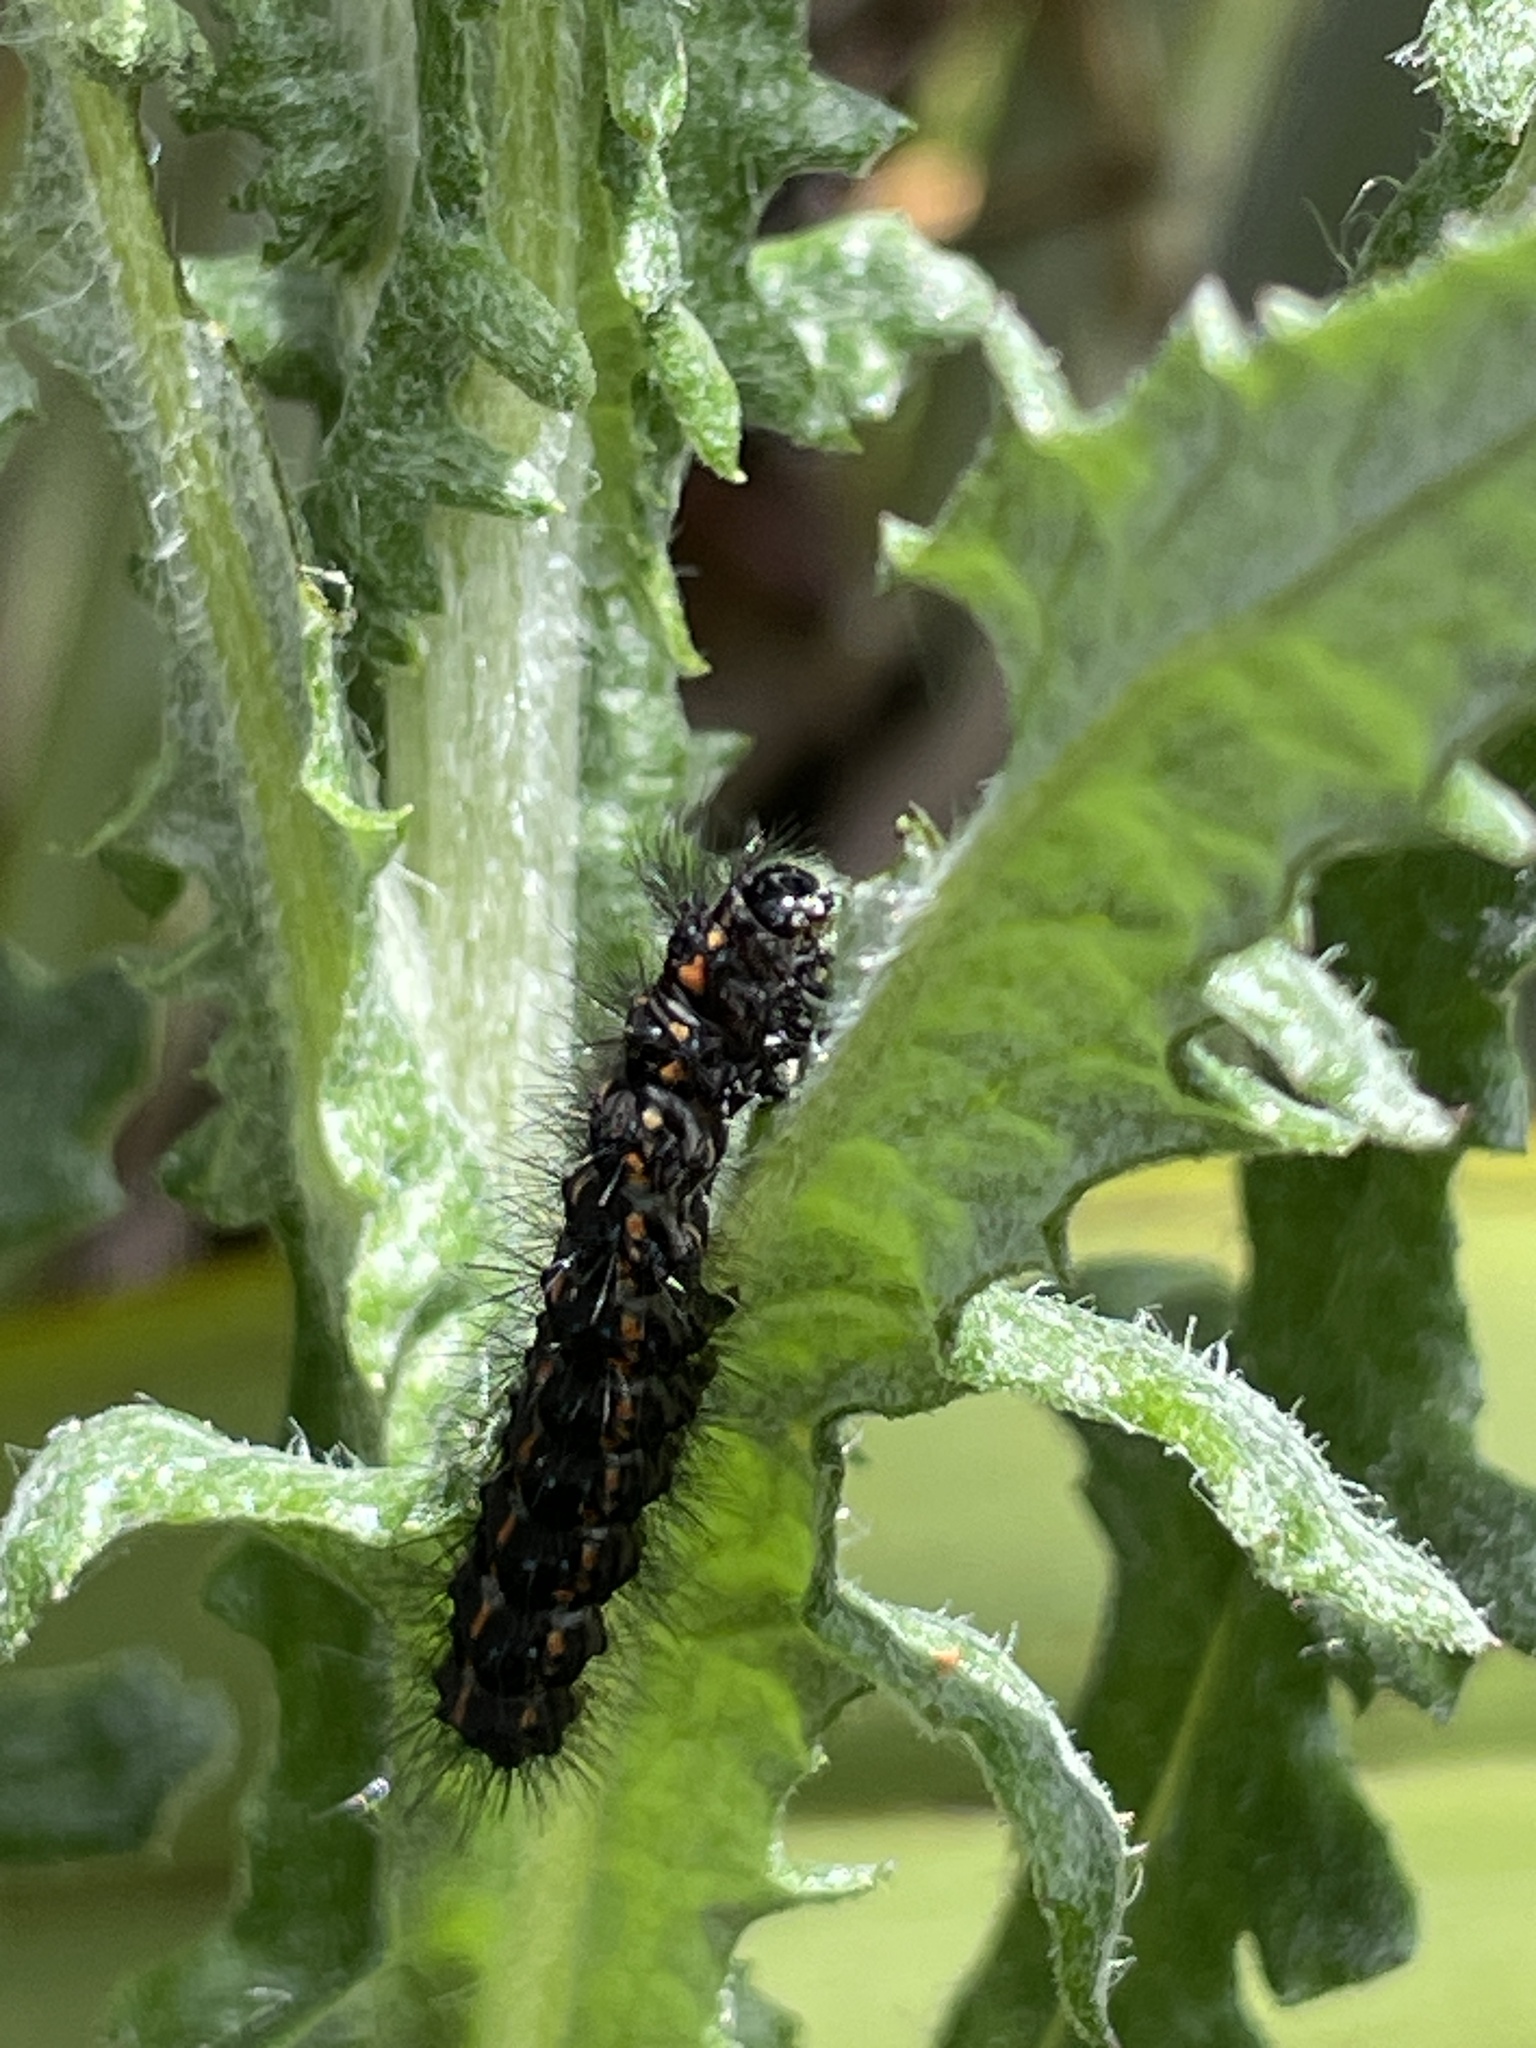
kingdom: Animalia
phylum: Arthropoda
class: Insecta
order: Lepidoptera
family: Erebidae
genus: Nyctemera
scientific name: Nyctemera annulatum
